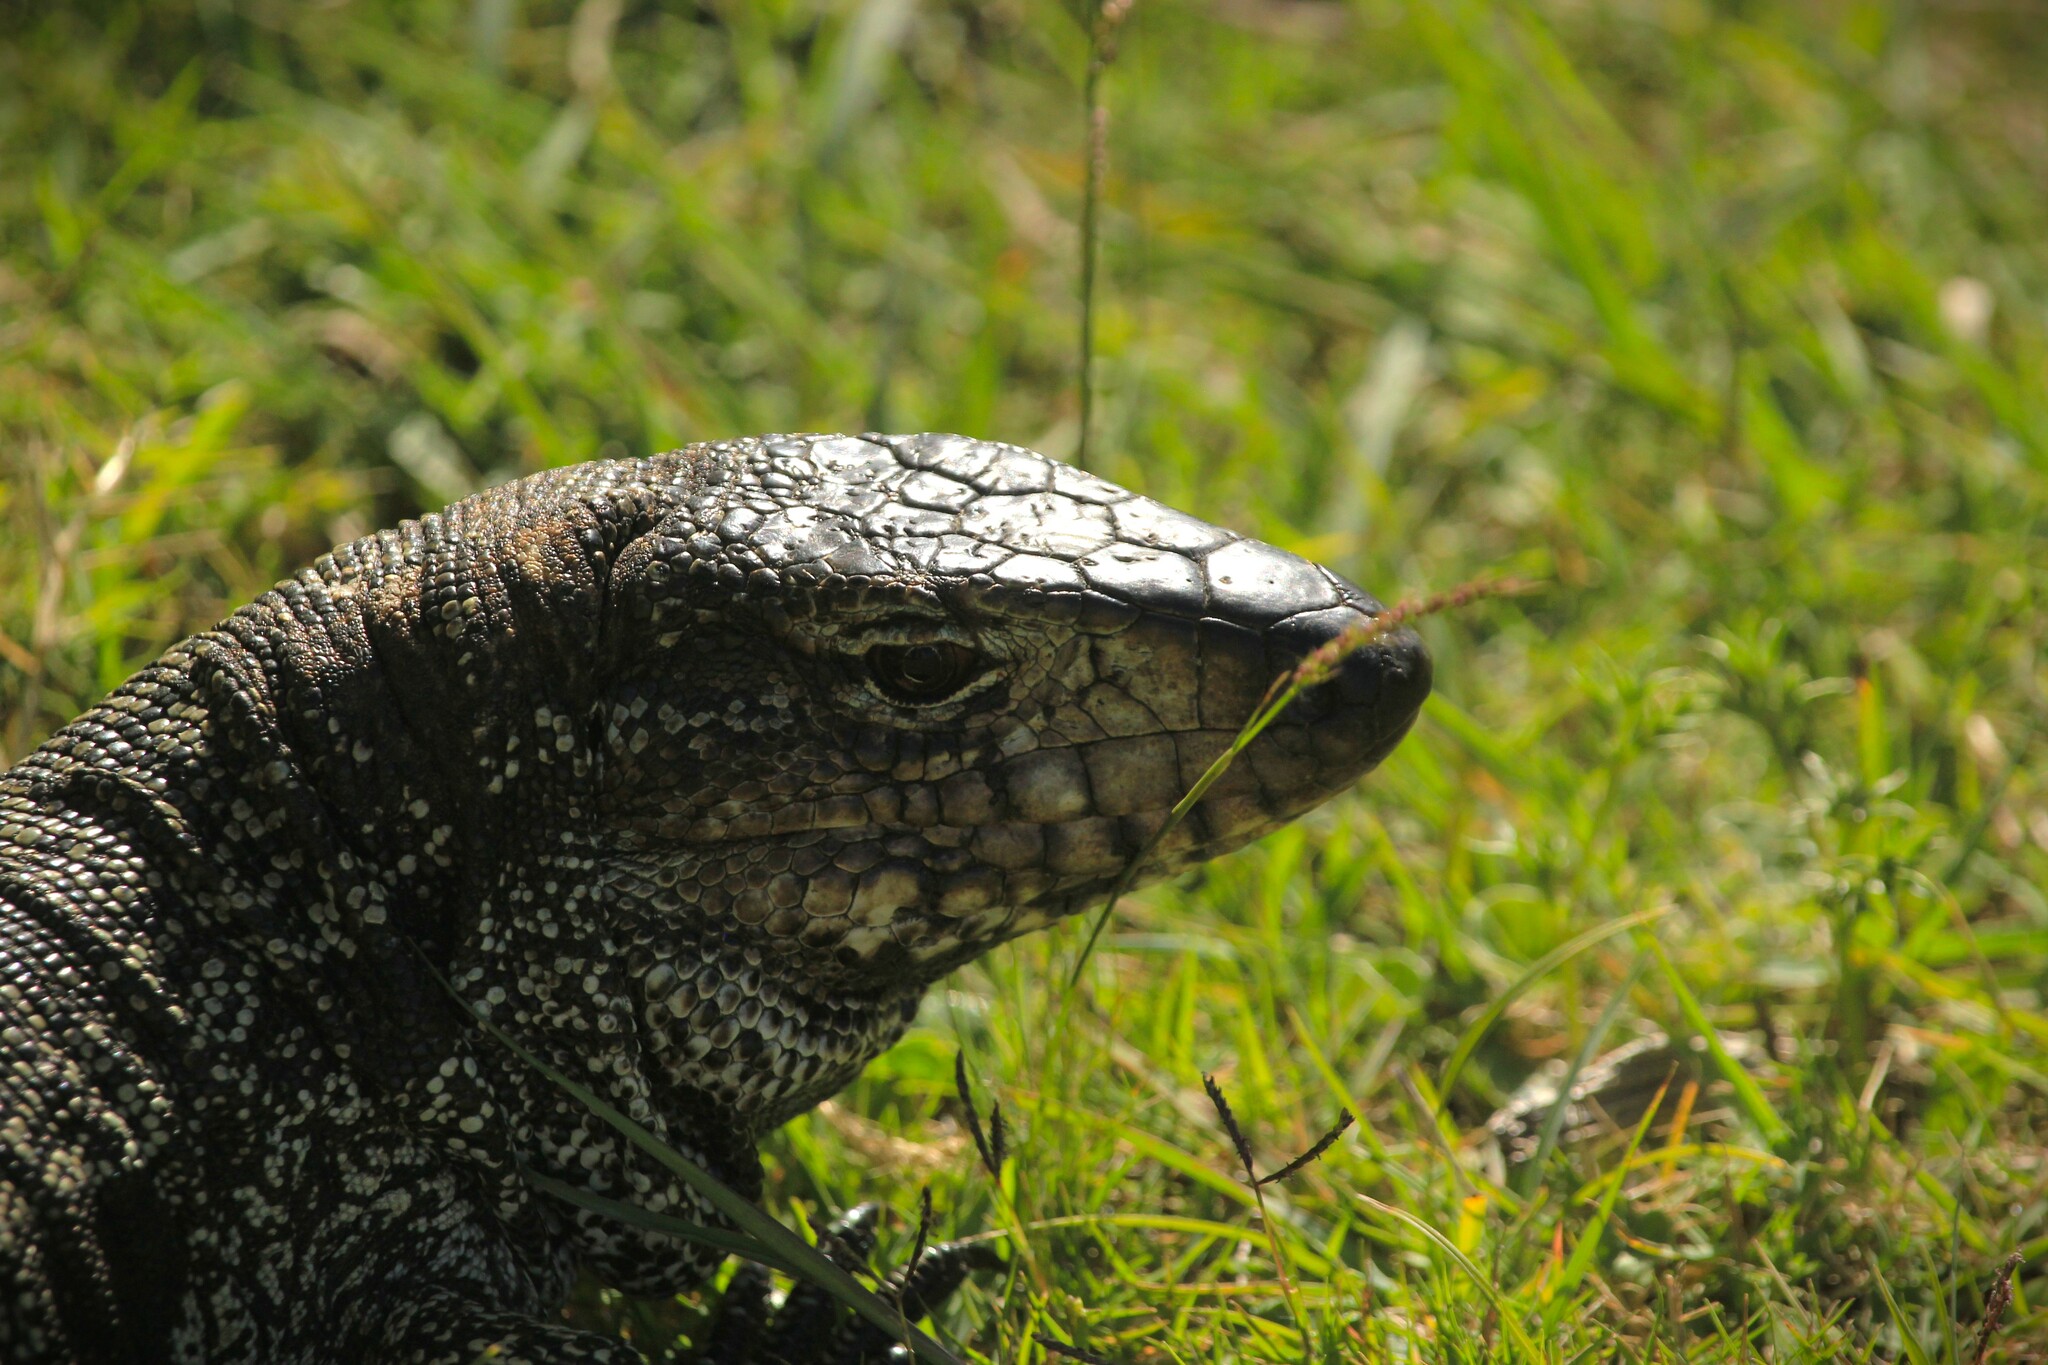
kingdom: Animalia
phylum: Chordata
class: Squamata
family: Teiidae
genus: Salvator
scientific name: Salvator merianae
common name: Argentine black and white tegu
